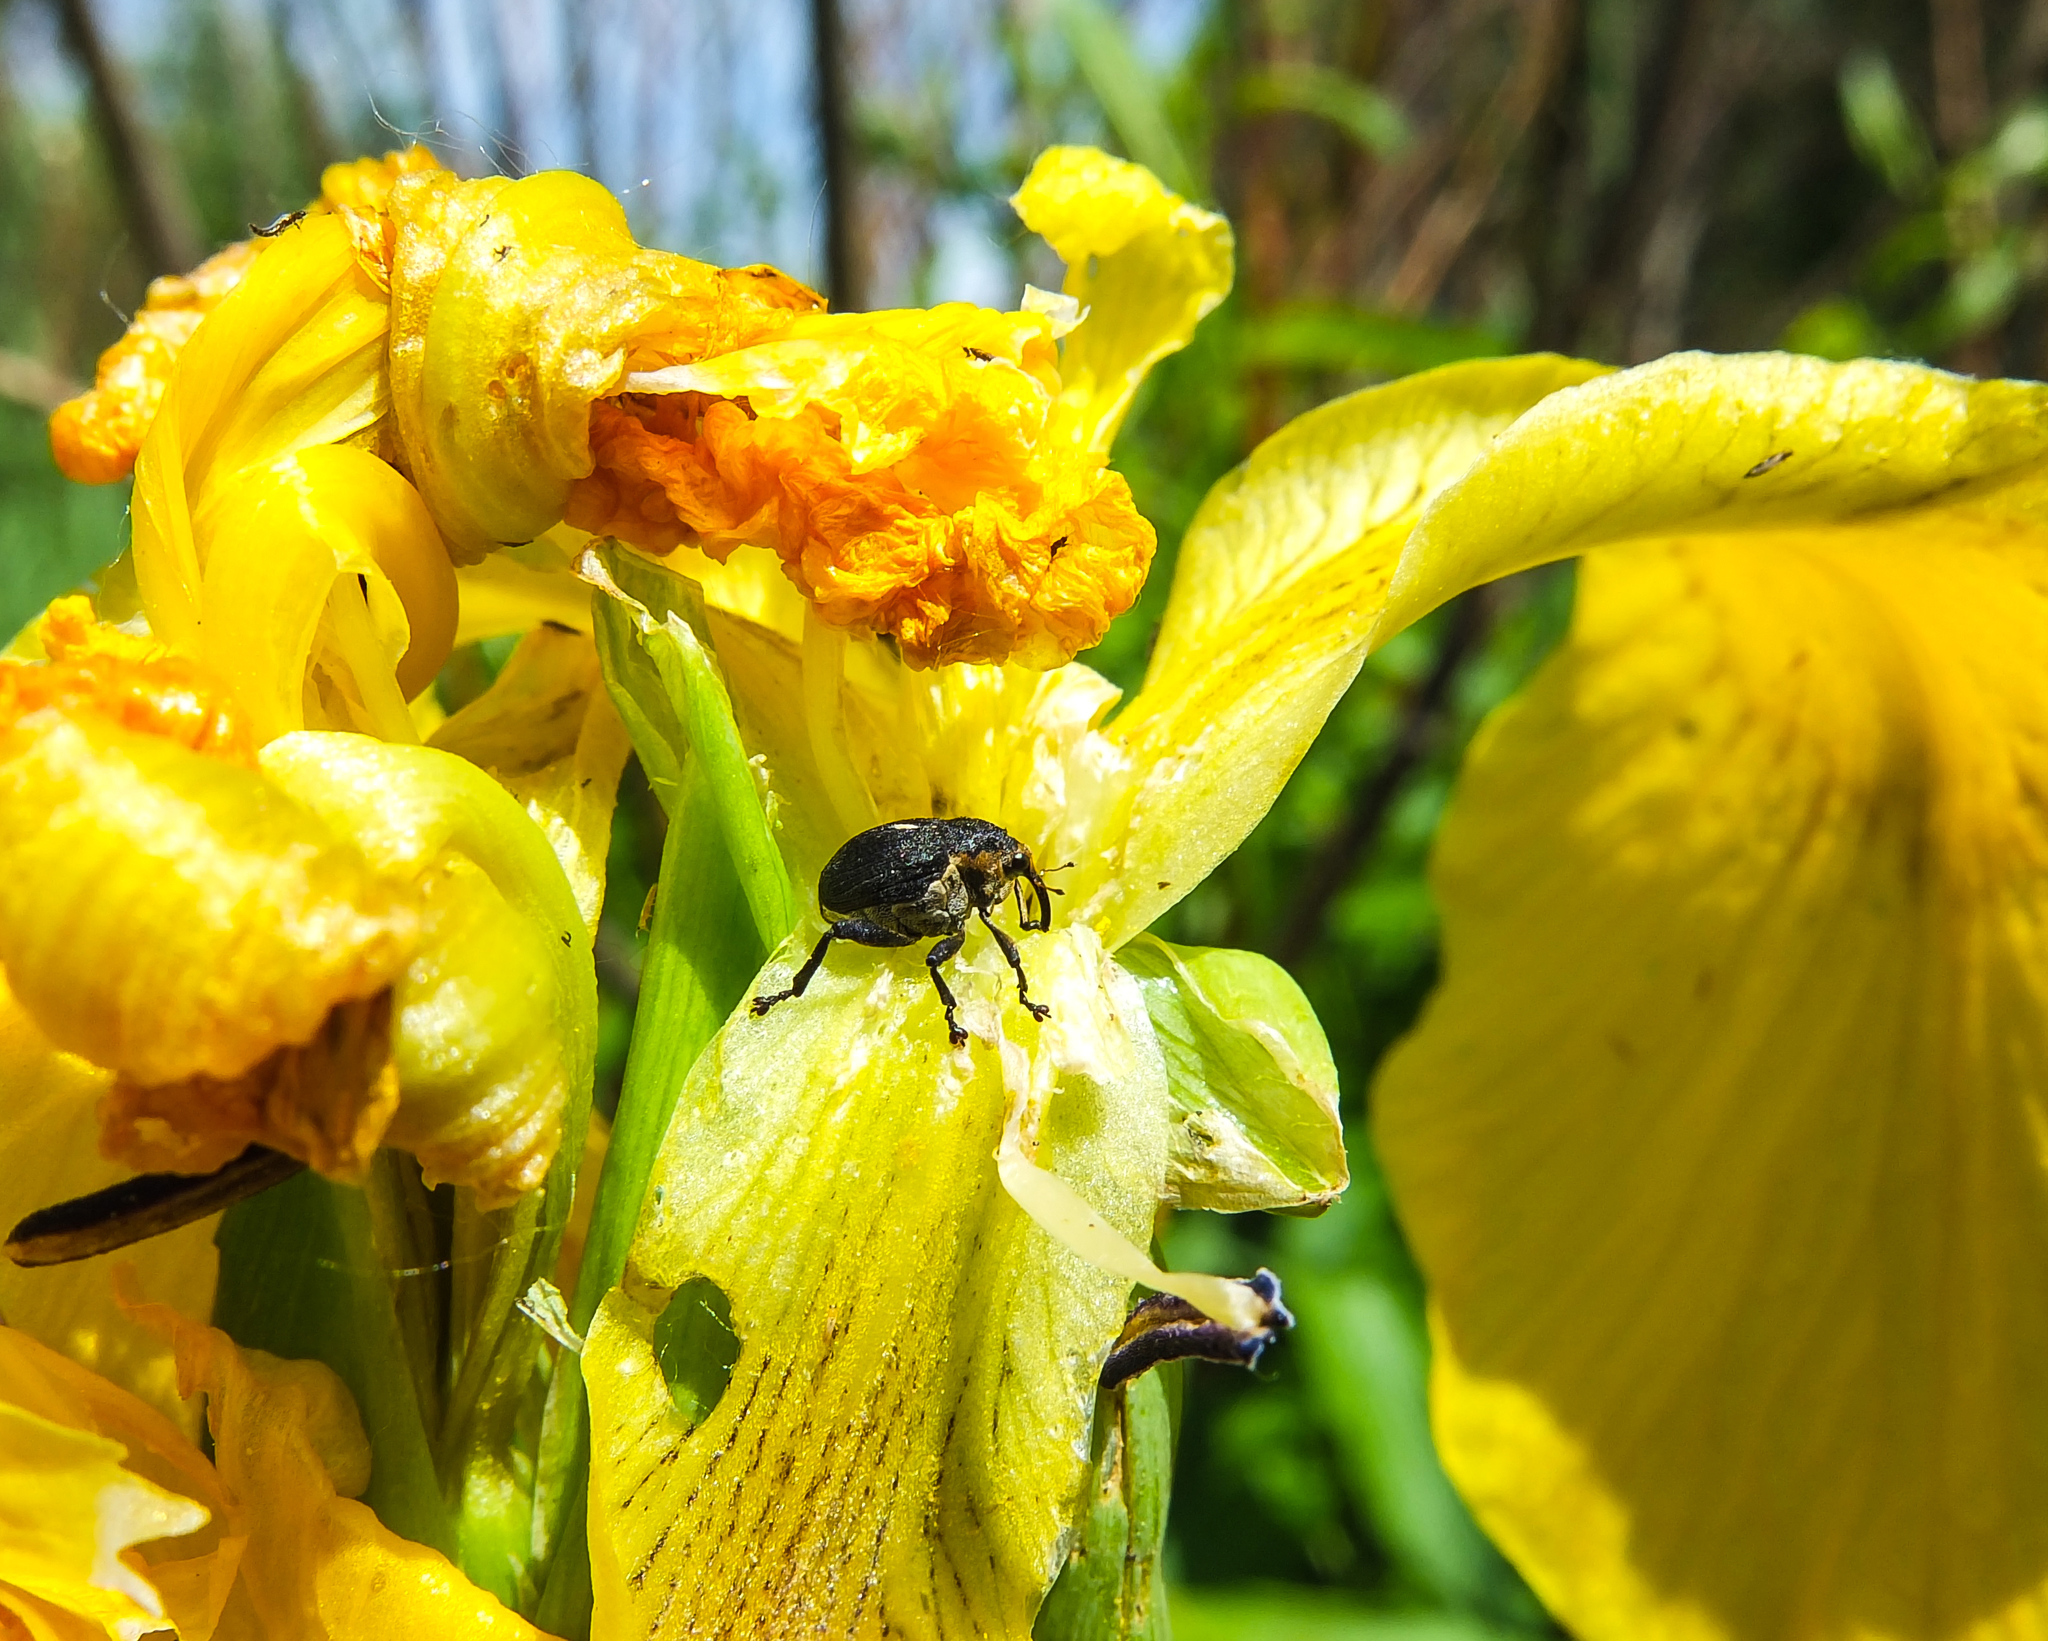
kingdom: Animalia
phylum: Arthropoda
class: Insecta
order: Coleoptera
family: Curculionidae
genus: Mononychus
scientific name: Mononychus punctumalbum
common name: Iris weevil
